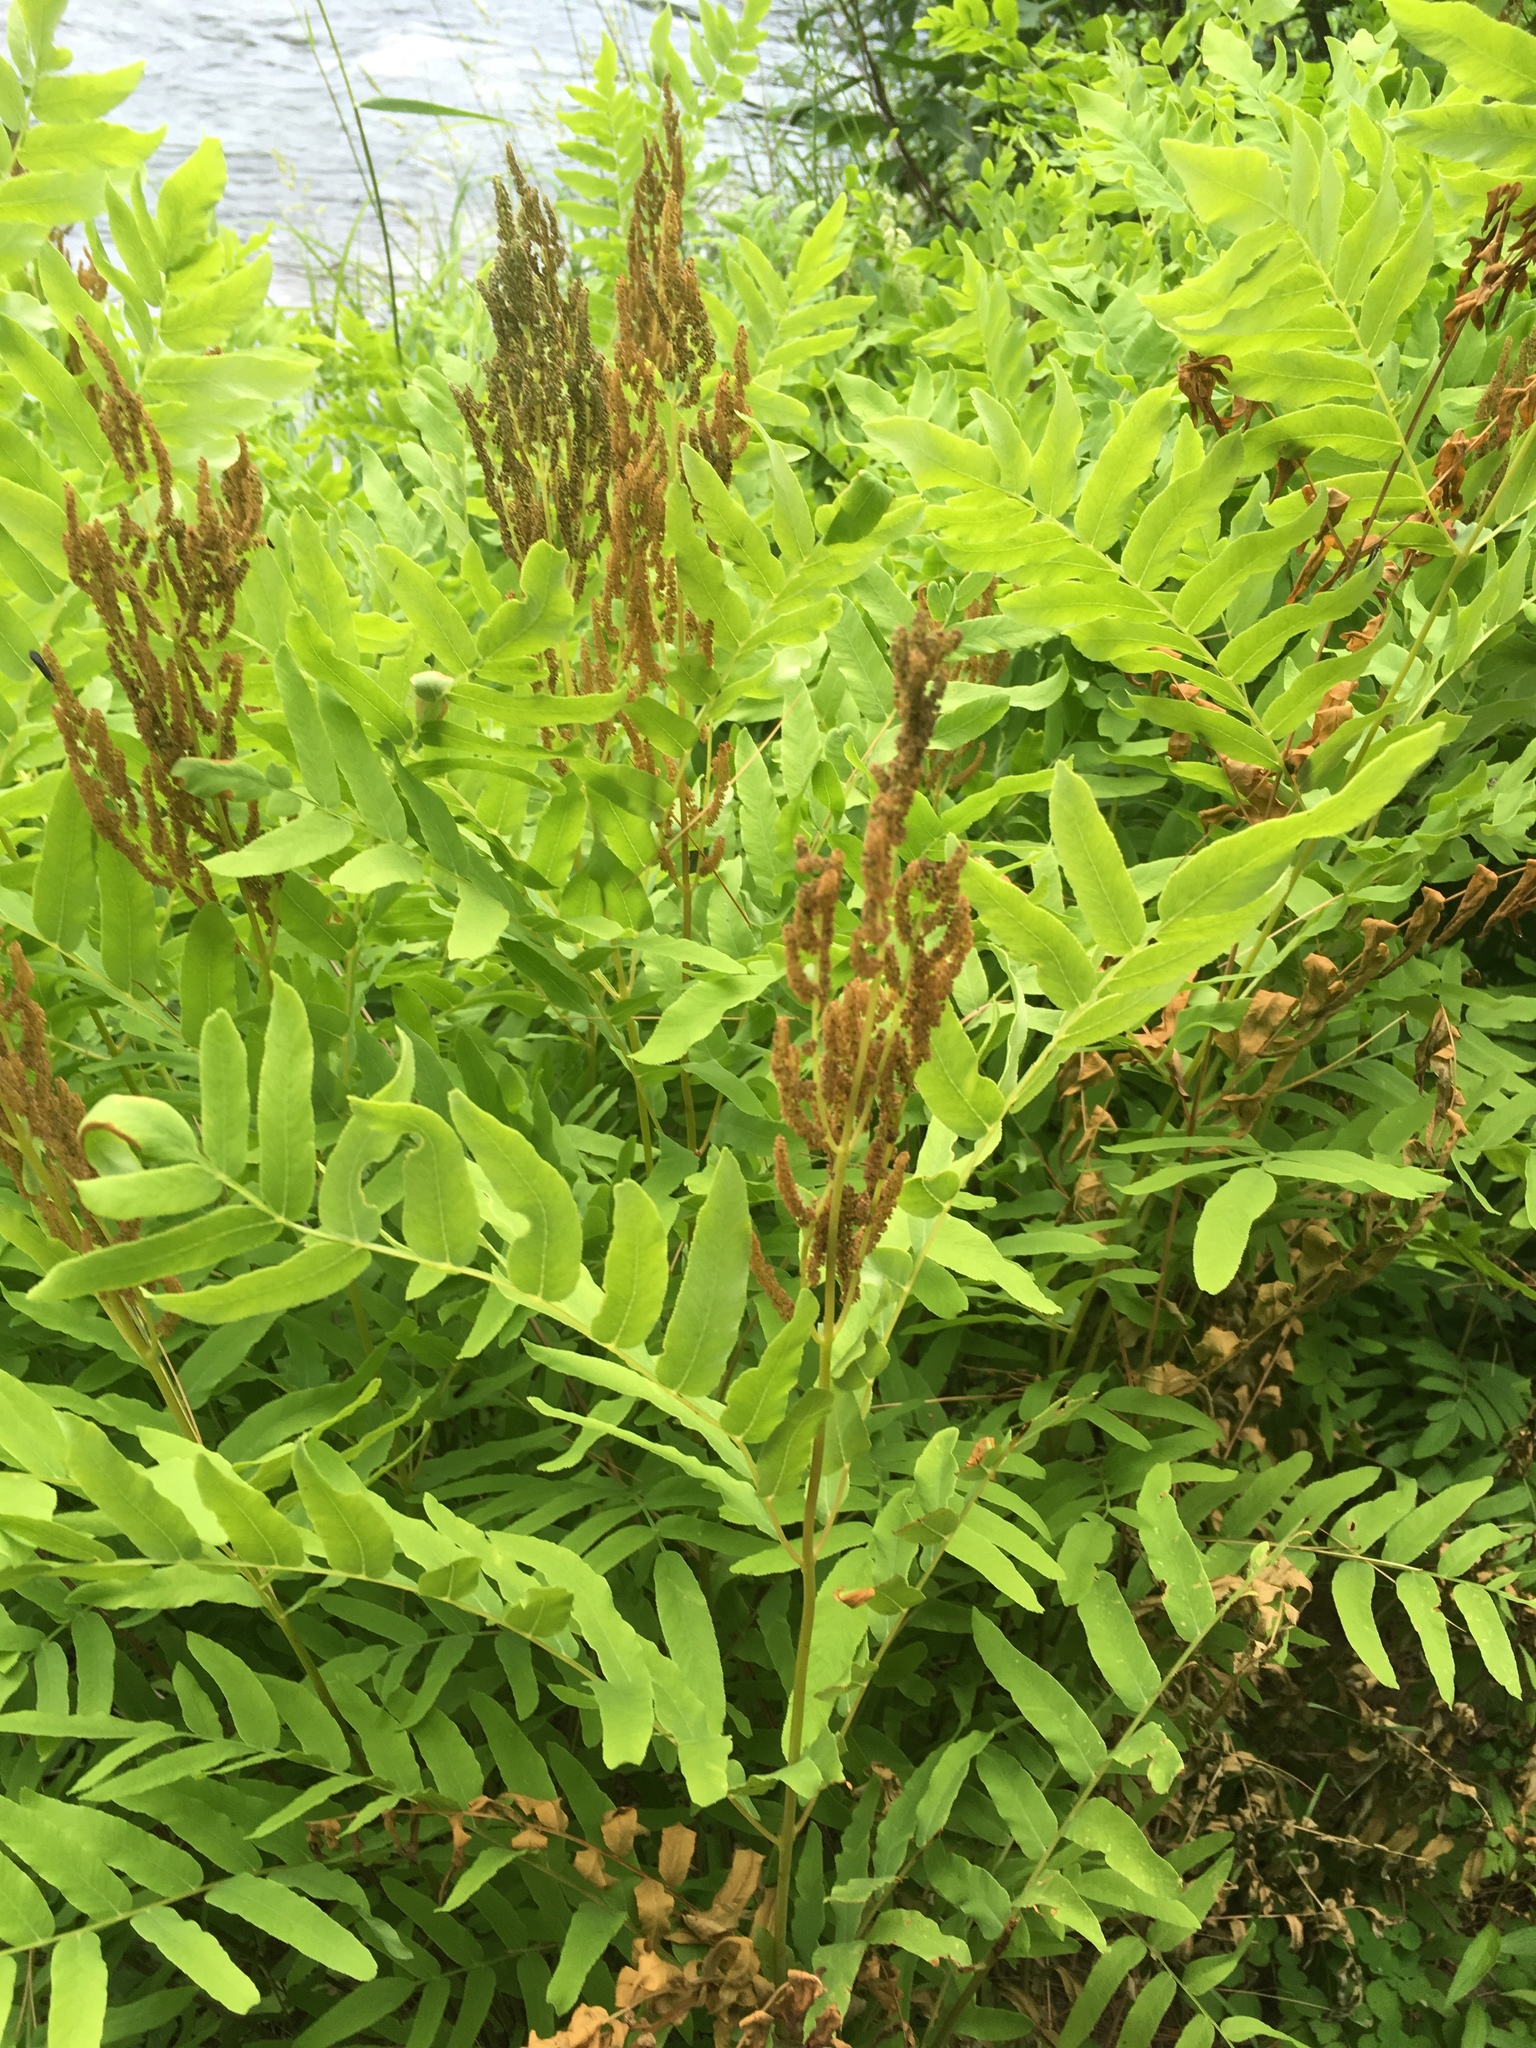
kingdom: Plantae
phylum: Tracheophyta
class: Polypodiopsida
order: Osmundales
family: Osmundaceae
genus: Osmunda
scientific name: Osmunda spectabilis
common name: American royal fern
